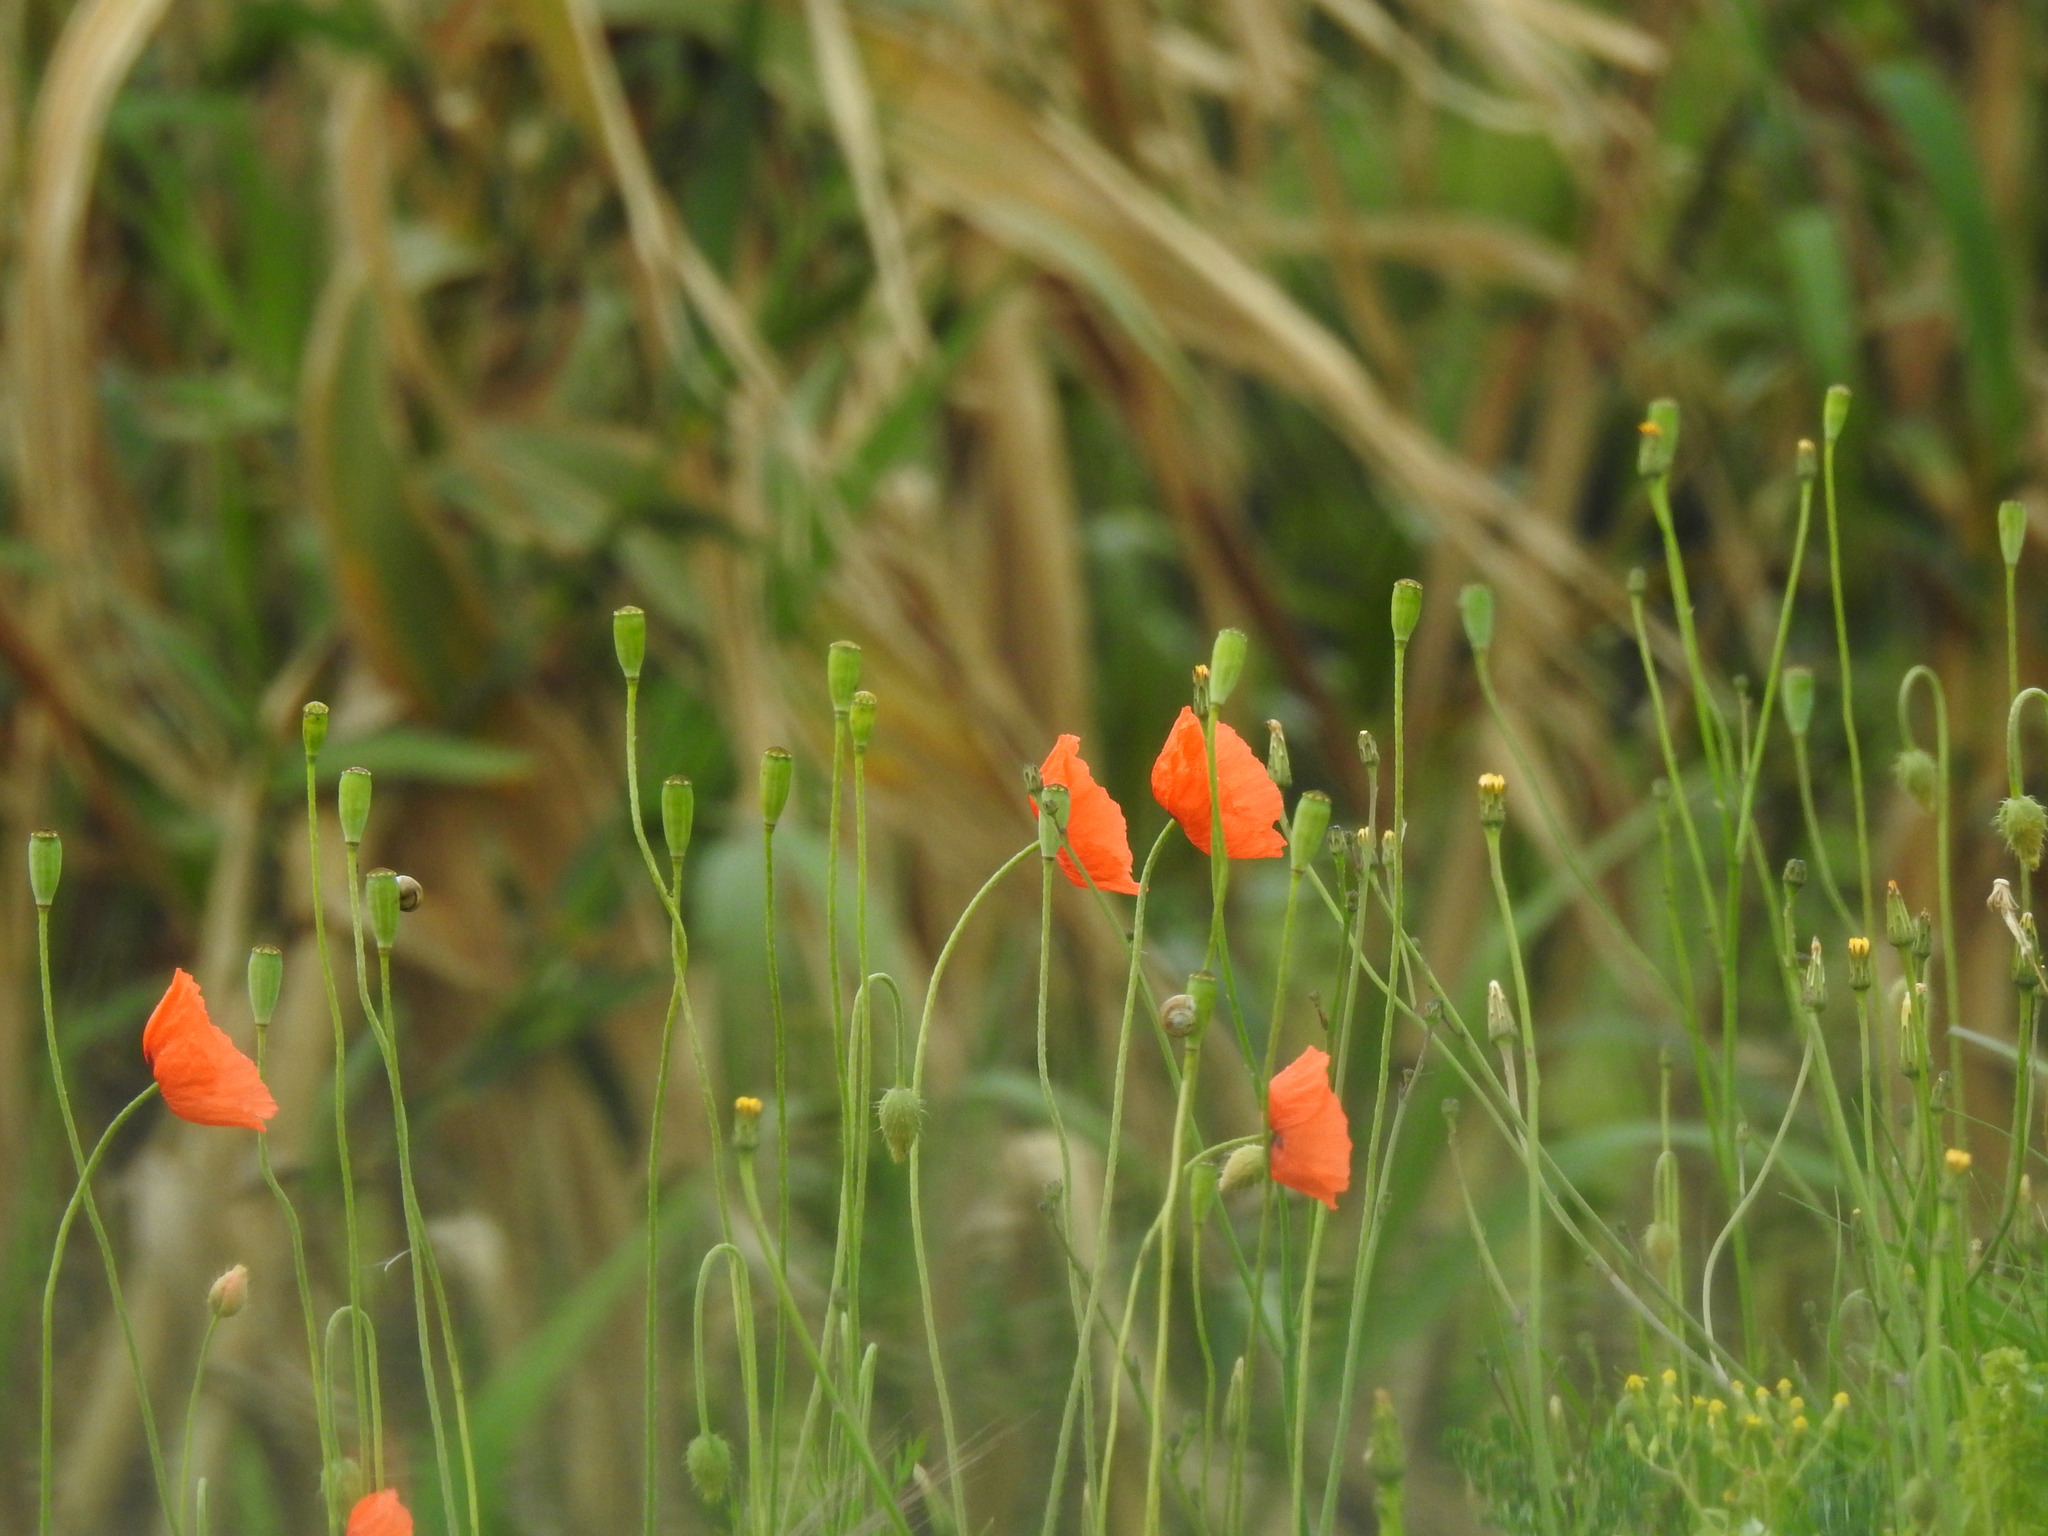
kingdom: Plantae
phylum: Tracheophyta
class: Magnoliopsida
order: Ranunculales
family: Papaveraceae
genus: Papaver
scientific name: Papaver dubium
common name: Long-headed poppy
